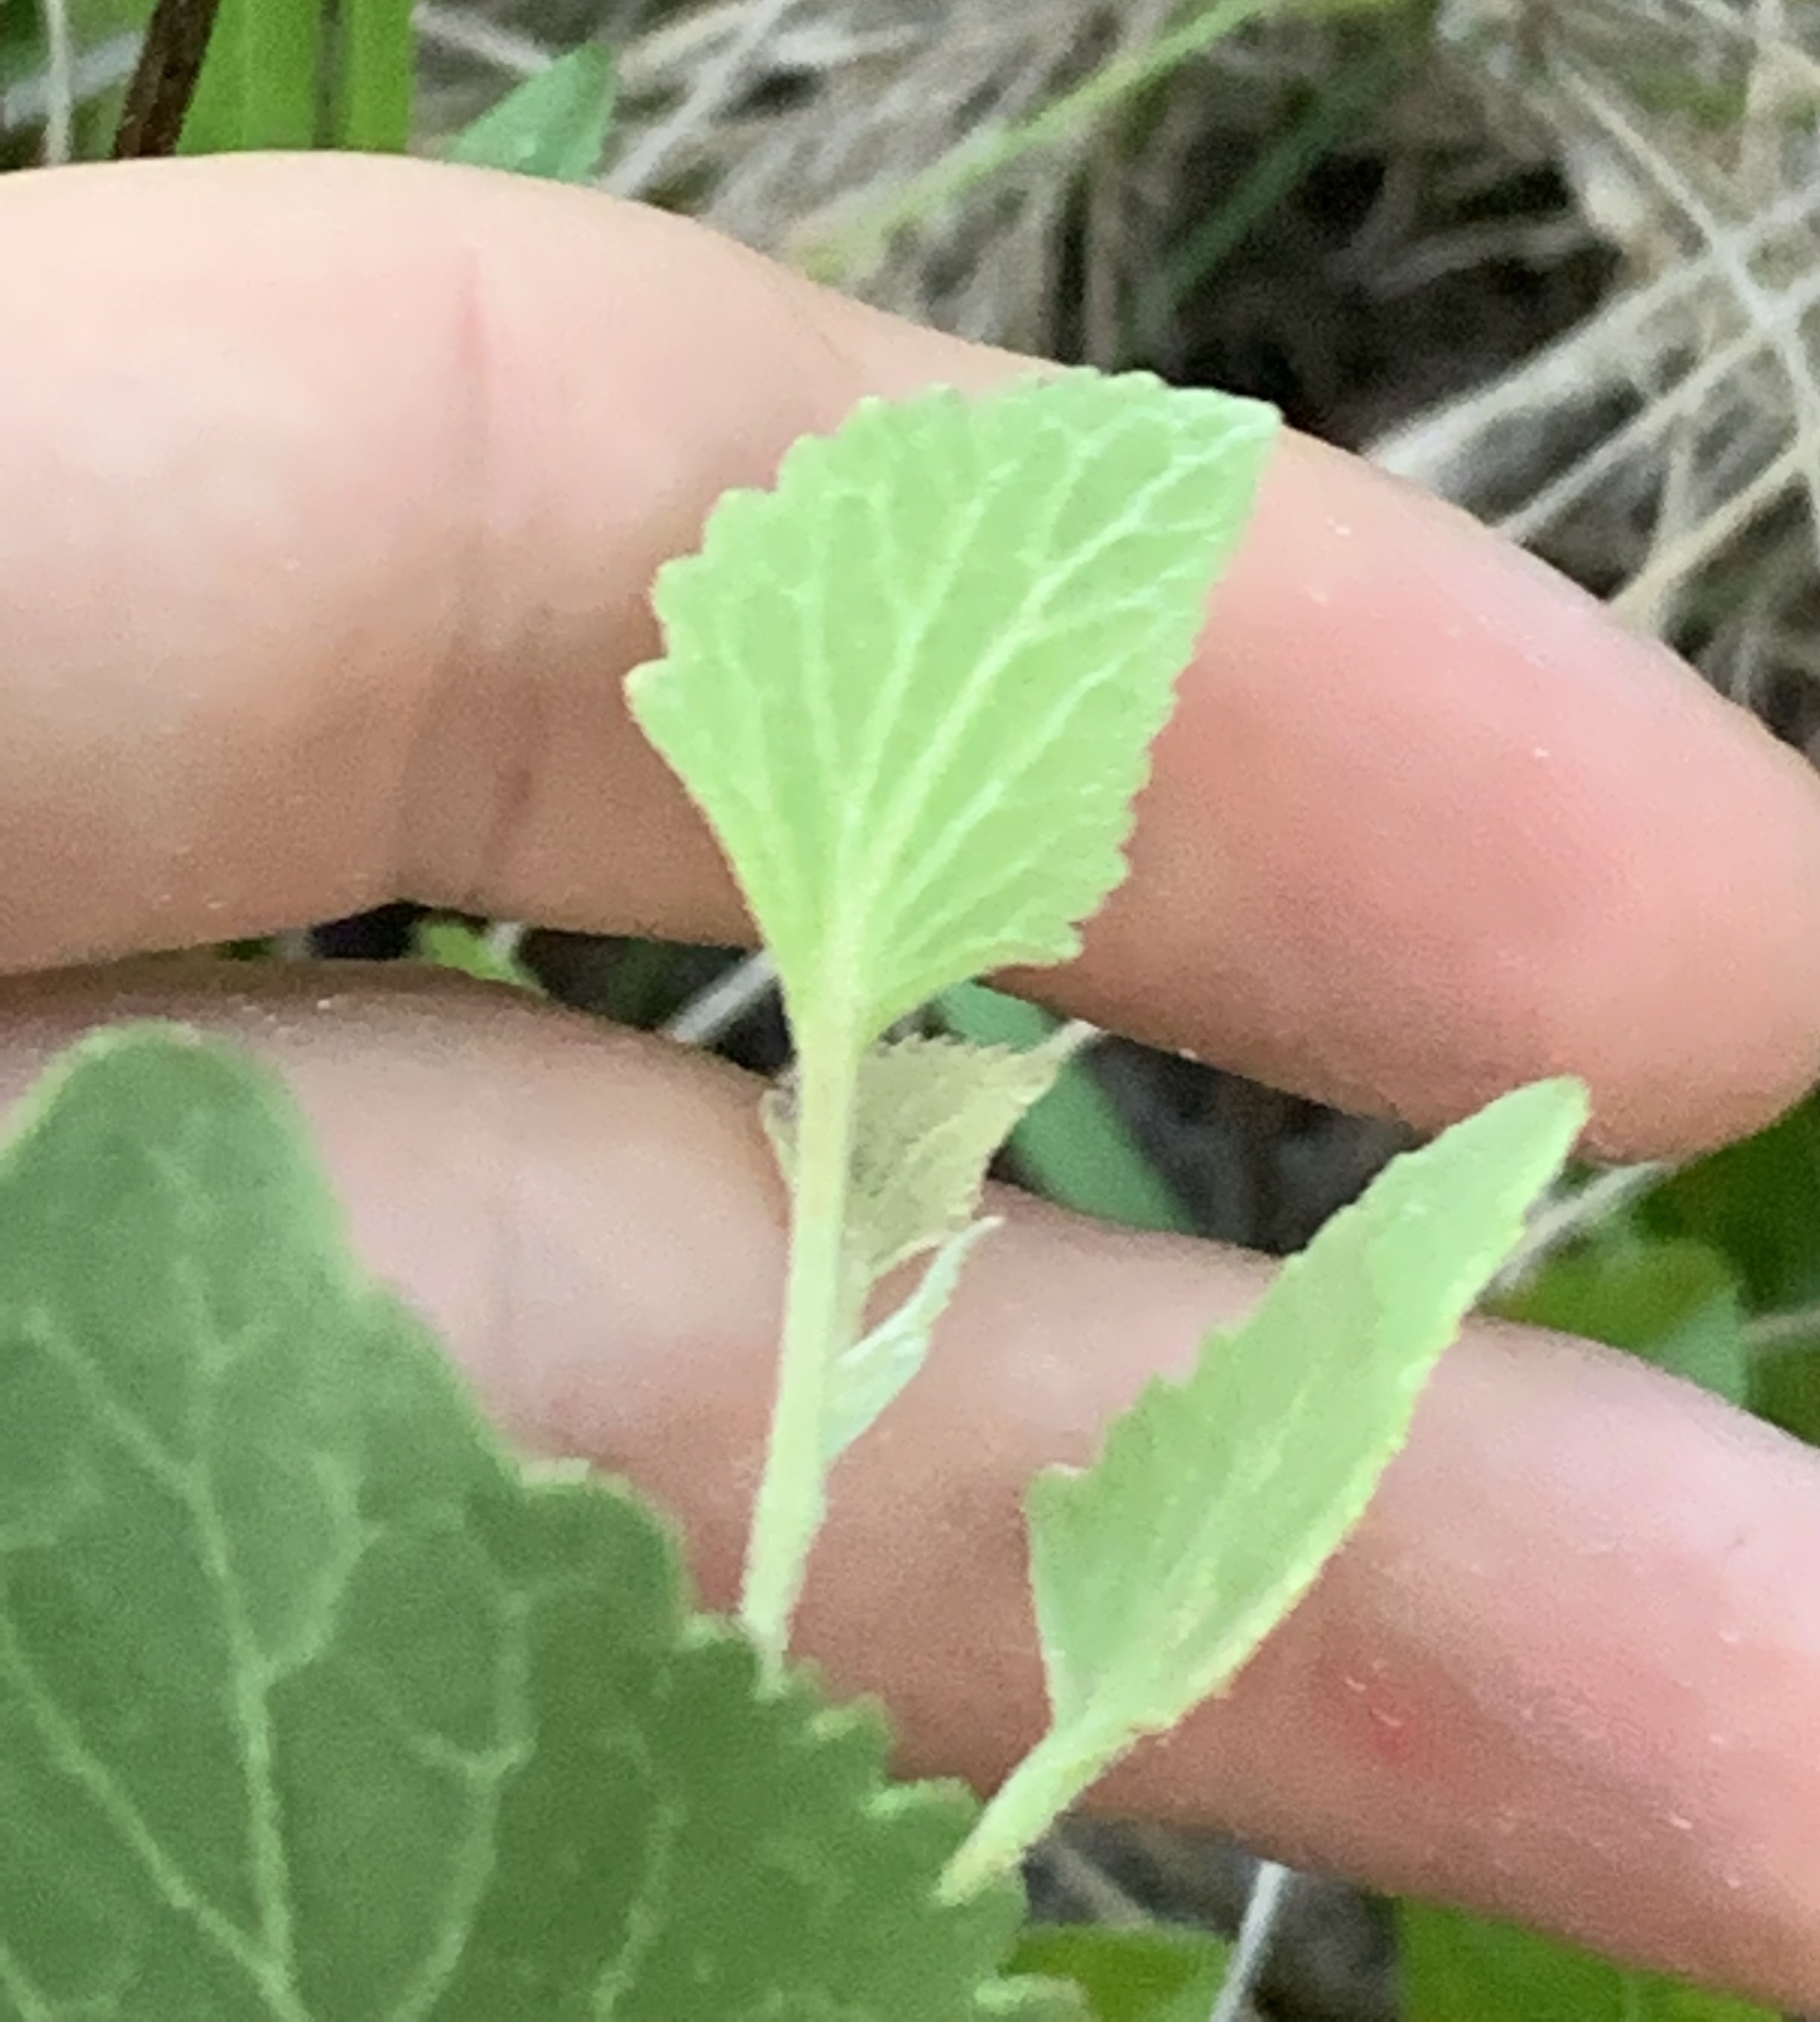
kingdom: Plantae
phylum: Tracheophyta
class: Magnoliopsida
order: Asterales
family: Asteraceae
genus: Eupatorium
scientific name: Eupatorium mikanioides
